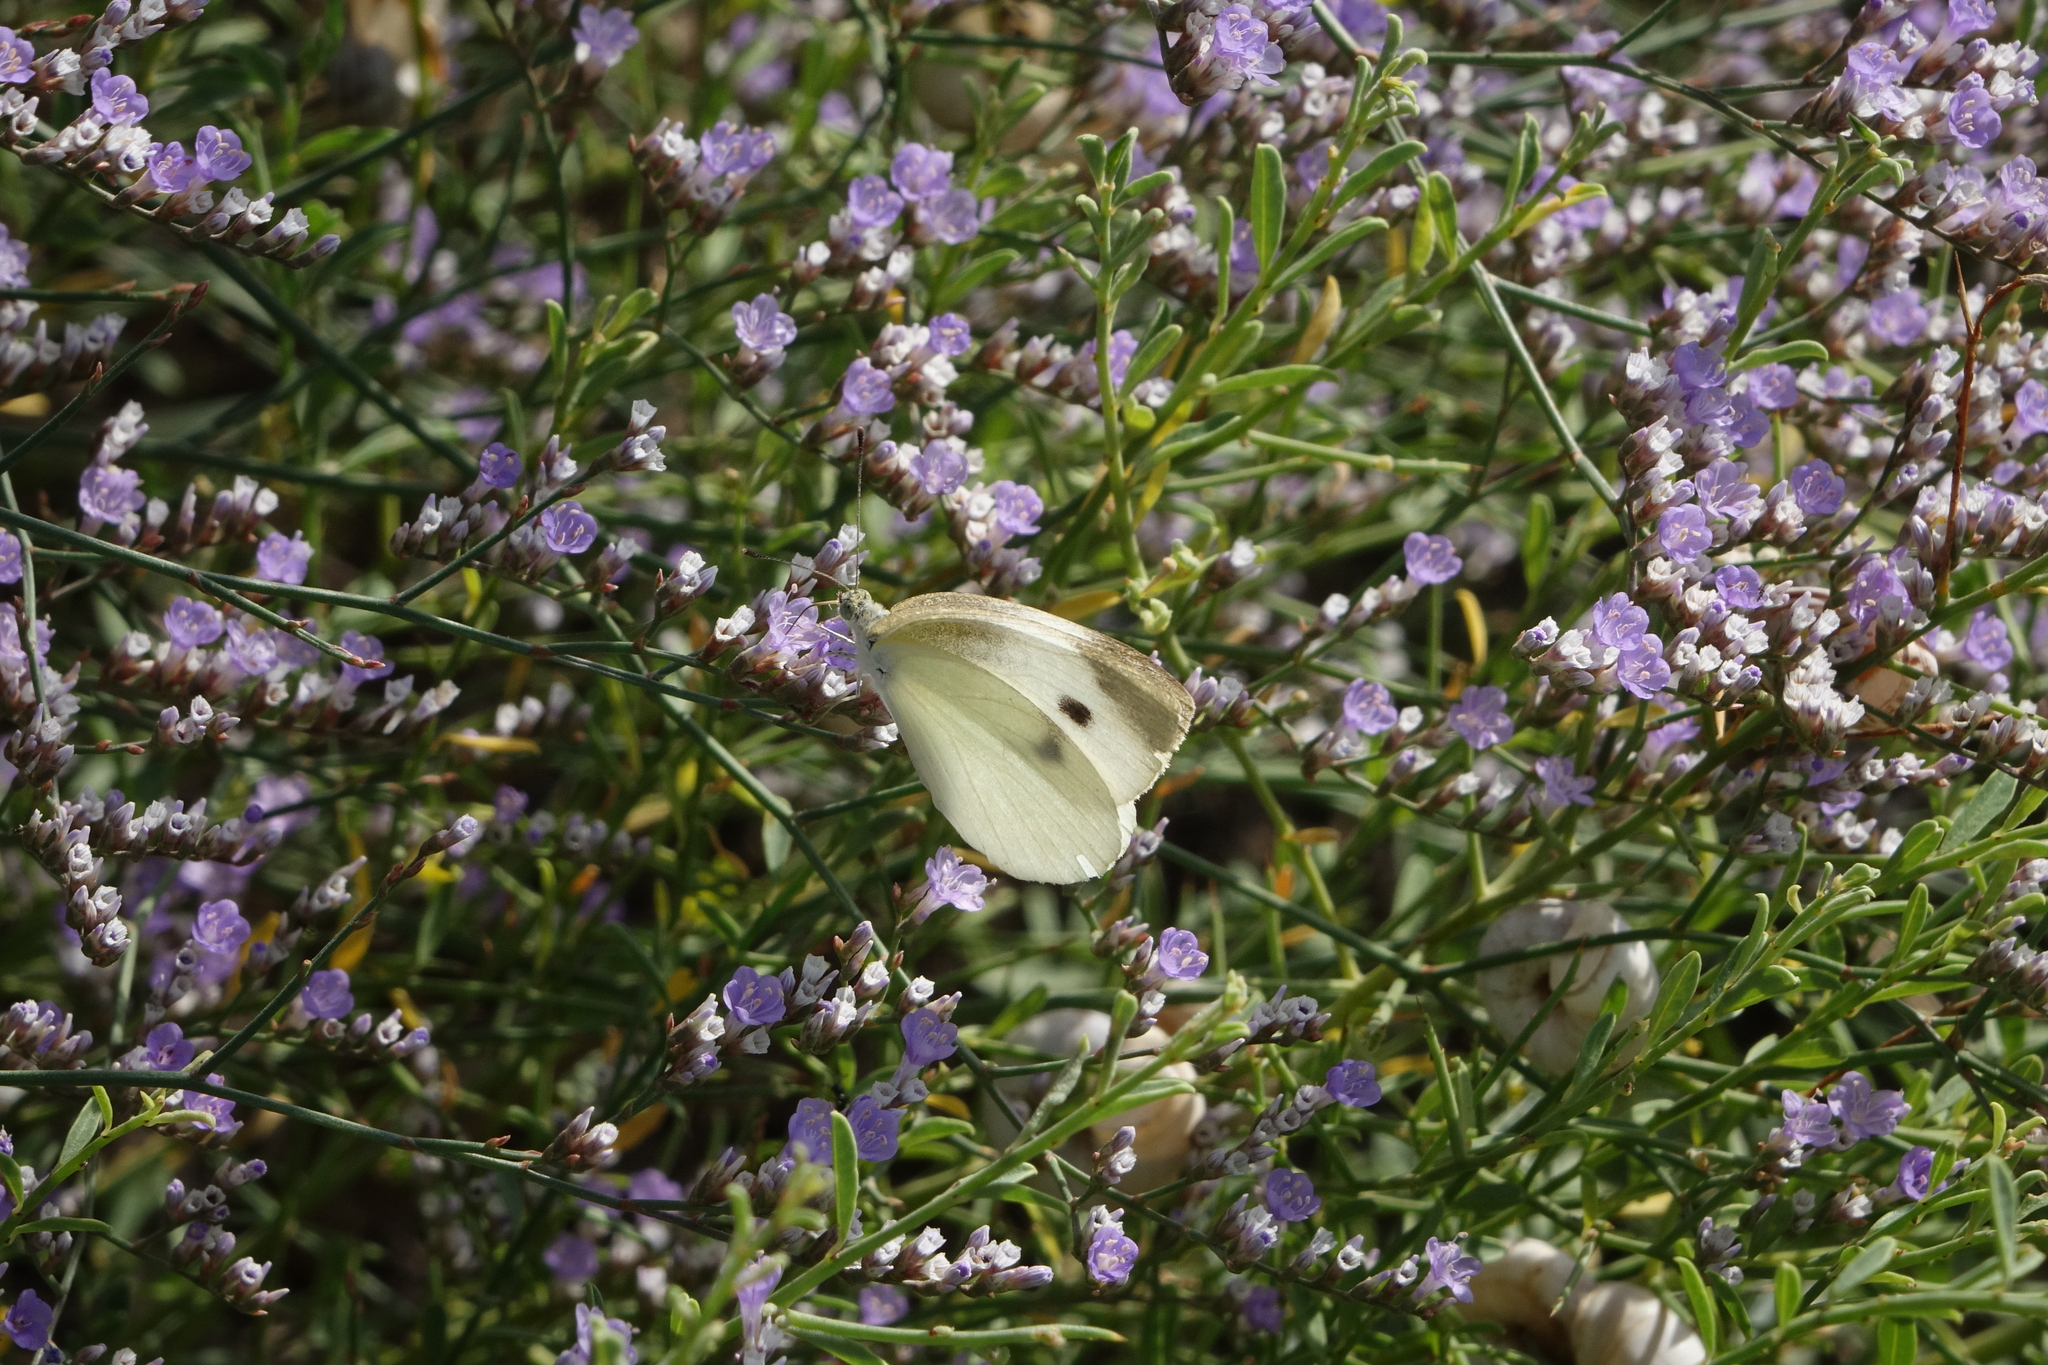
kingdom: Plantae
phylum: Tracheophyta
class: Magnoliopsida
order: Caryophyllales
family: Plumbaginaceae
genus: Limonium
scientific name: Limonium scoparium
